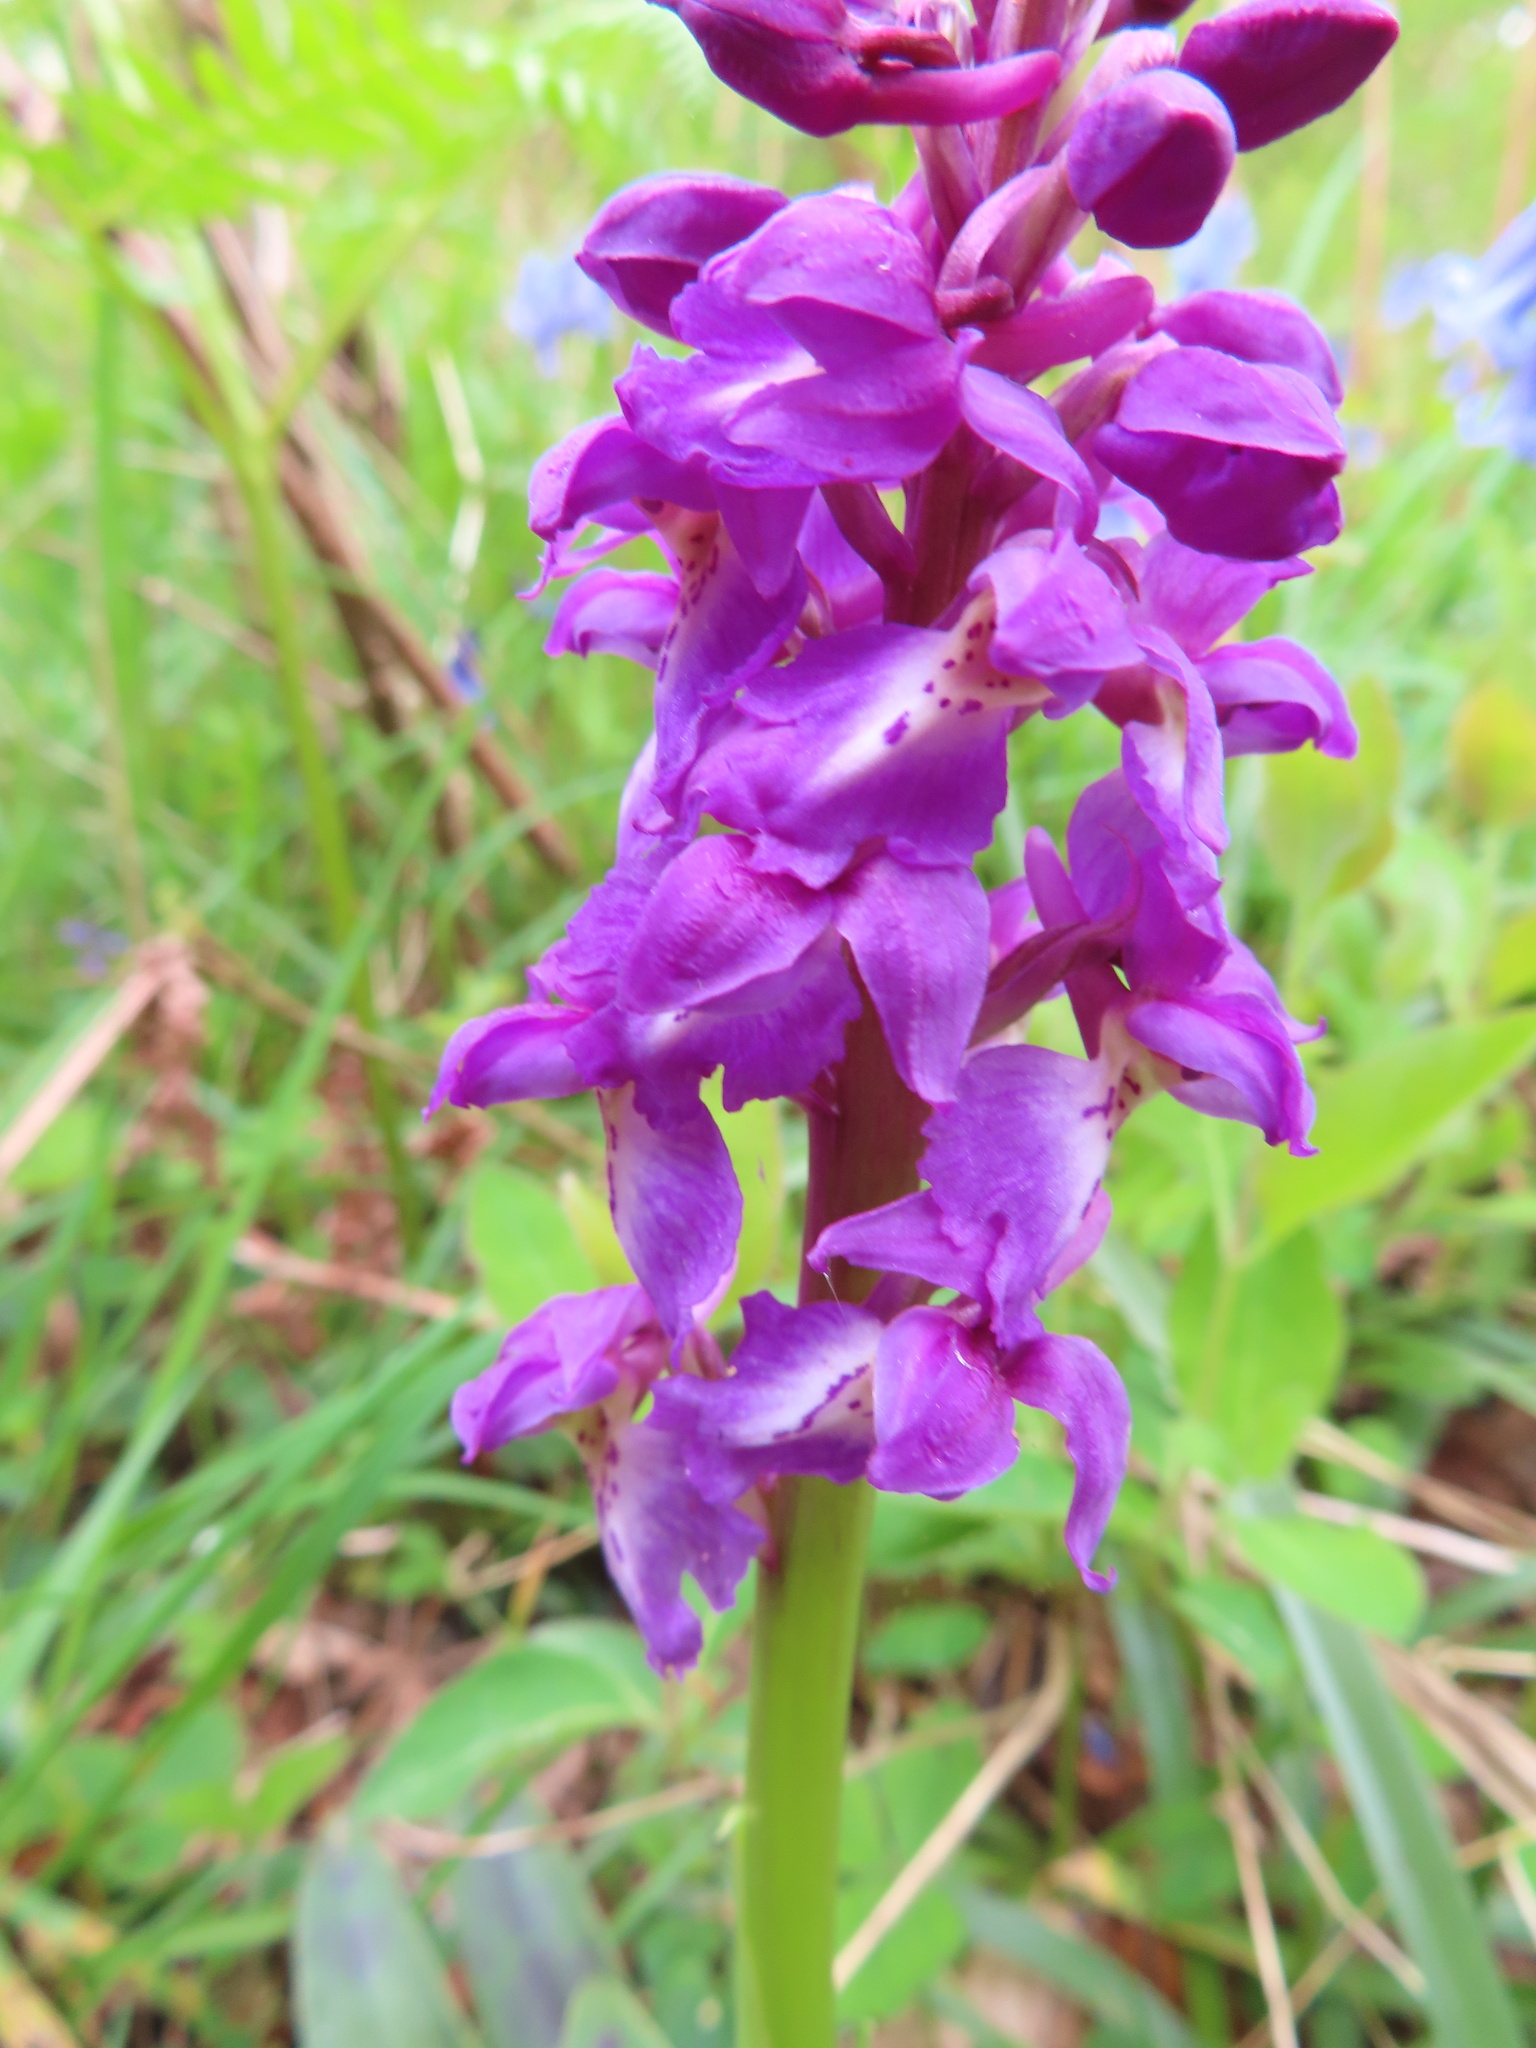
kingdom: Plantae
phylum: Tracheophyta
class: Liliopsida
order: Asparagales
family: Orchidaceae
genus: Orchis
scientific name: Orchis mascula
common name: Early-purple orchid
